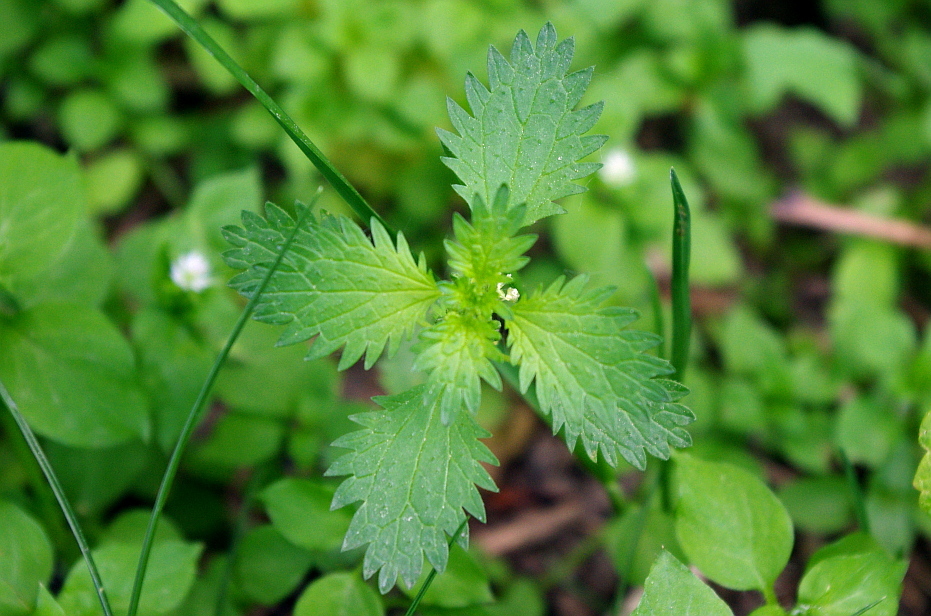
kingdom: Plantae
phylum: Tracheophyta
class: Magnoliopsida
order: Rosales
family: Urticaceae
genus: Urtica
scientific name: Urtica urens
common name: Dwarf nettle
